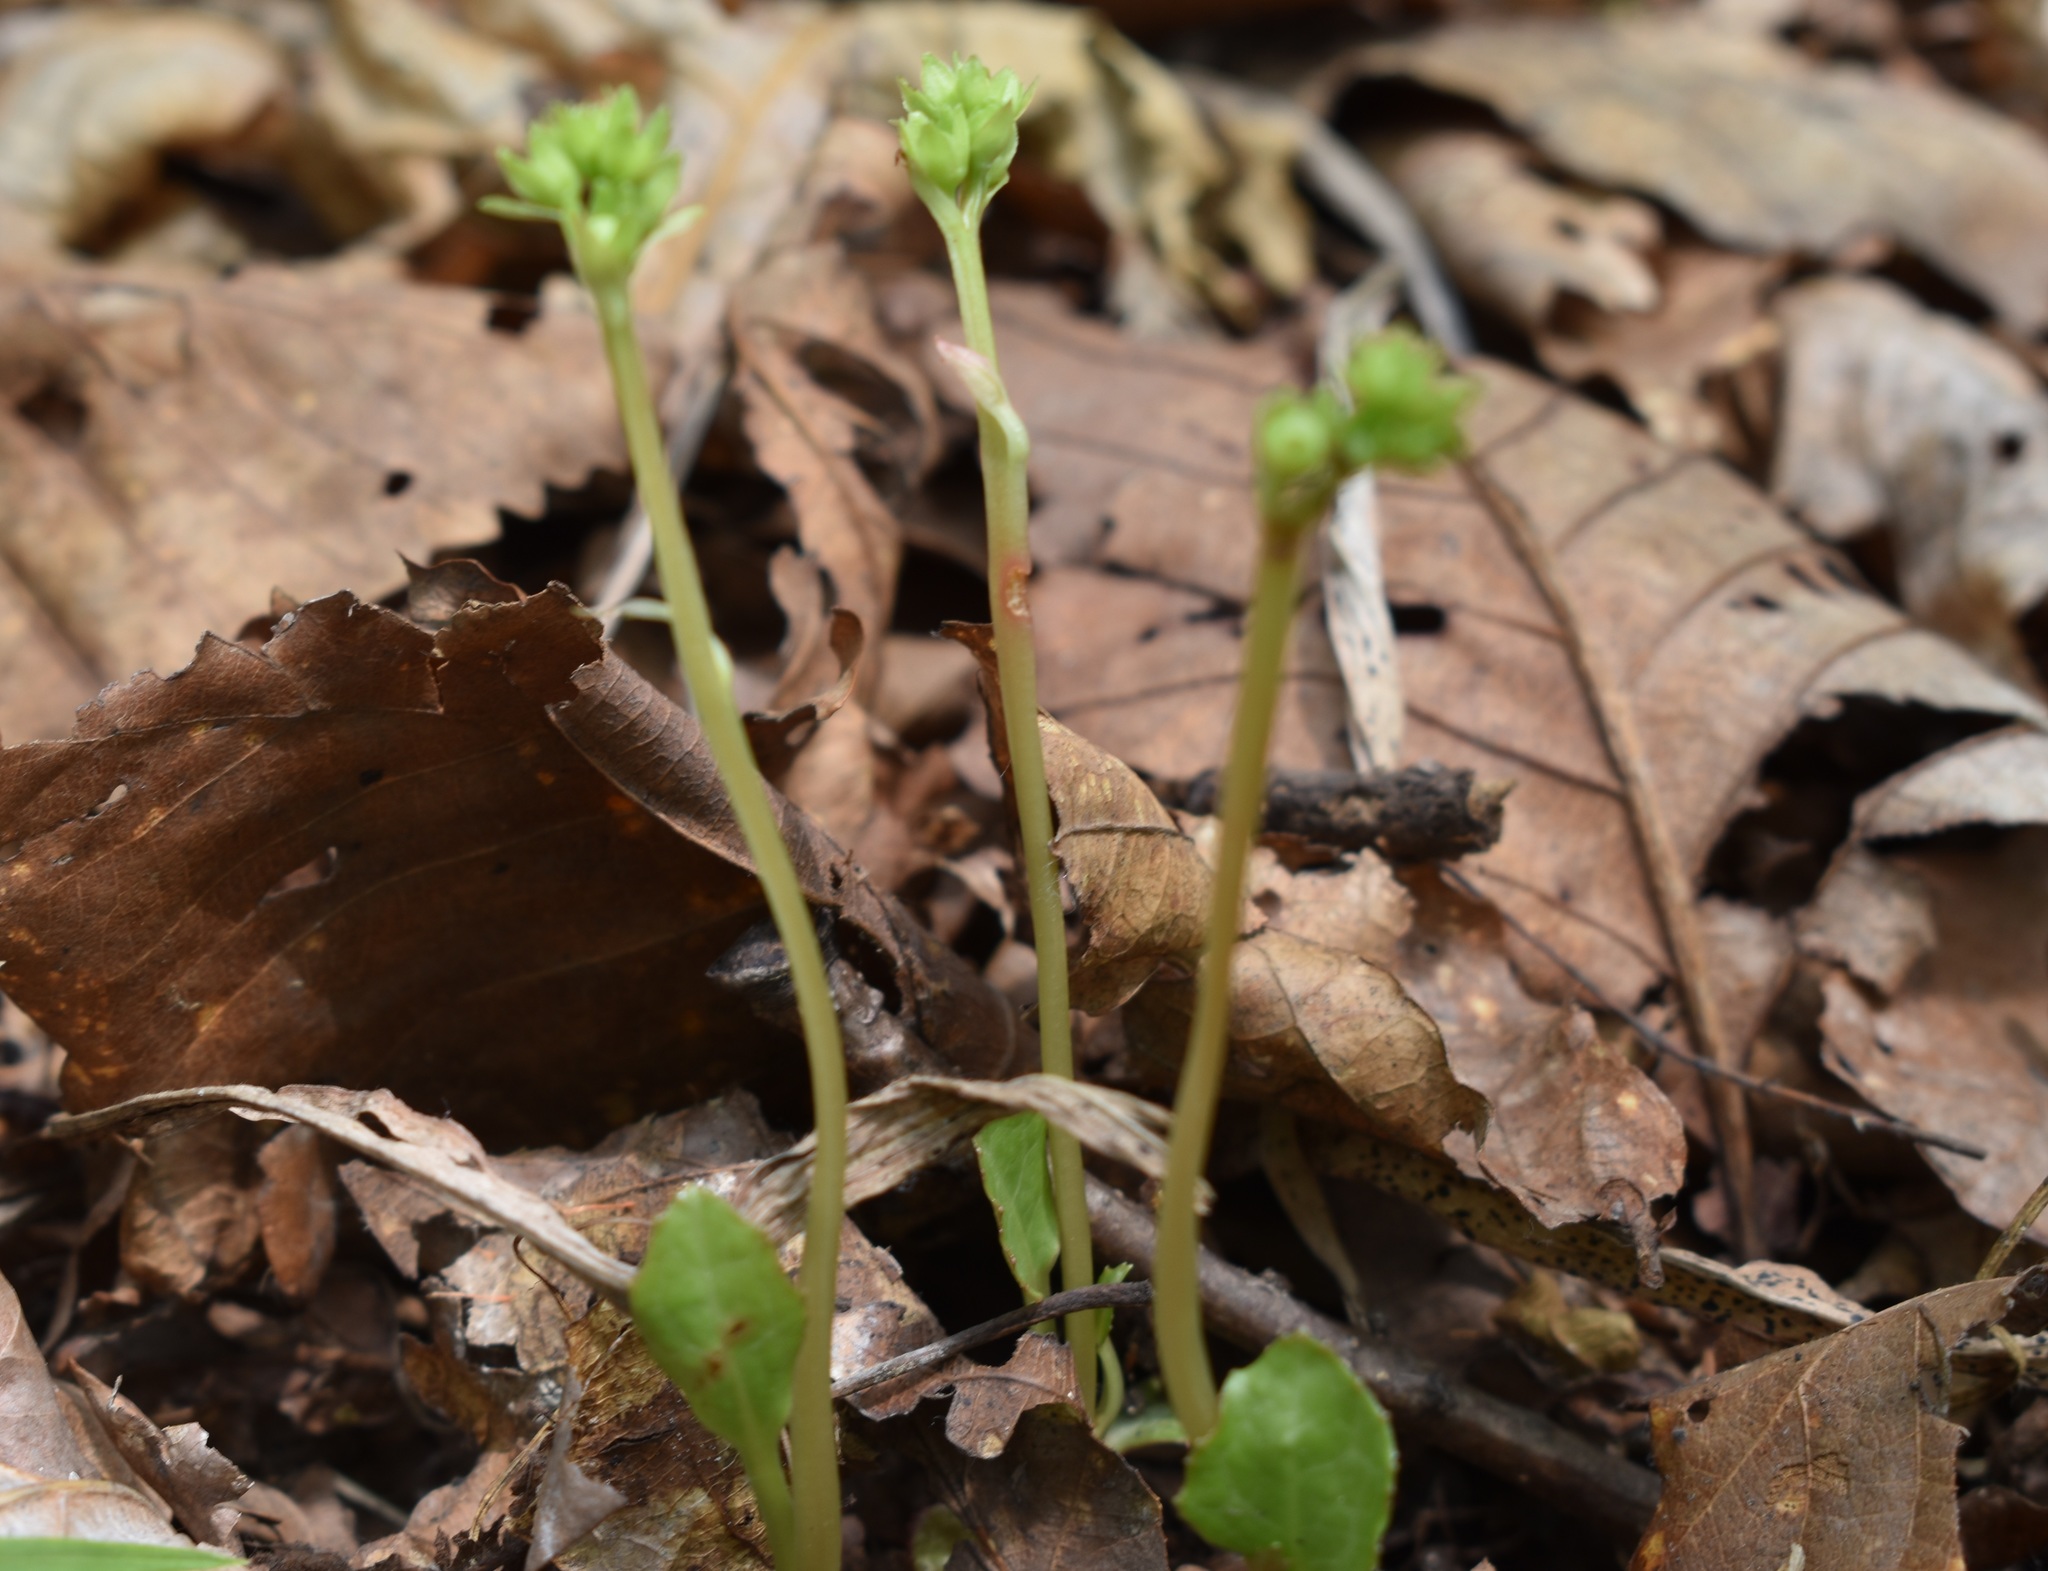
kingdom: Plantae
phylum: Tracheophyta
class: Magnoliopsida
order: Ericales
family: Ericaceae
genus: Pyrola
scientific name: Pyrola japonica
